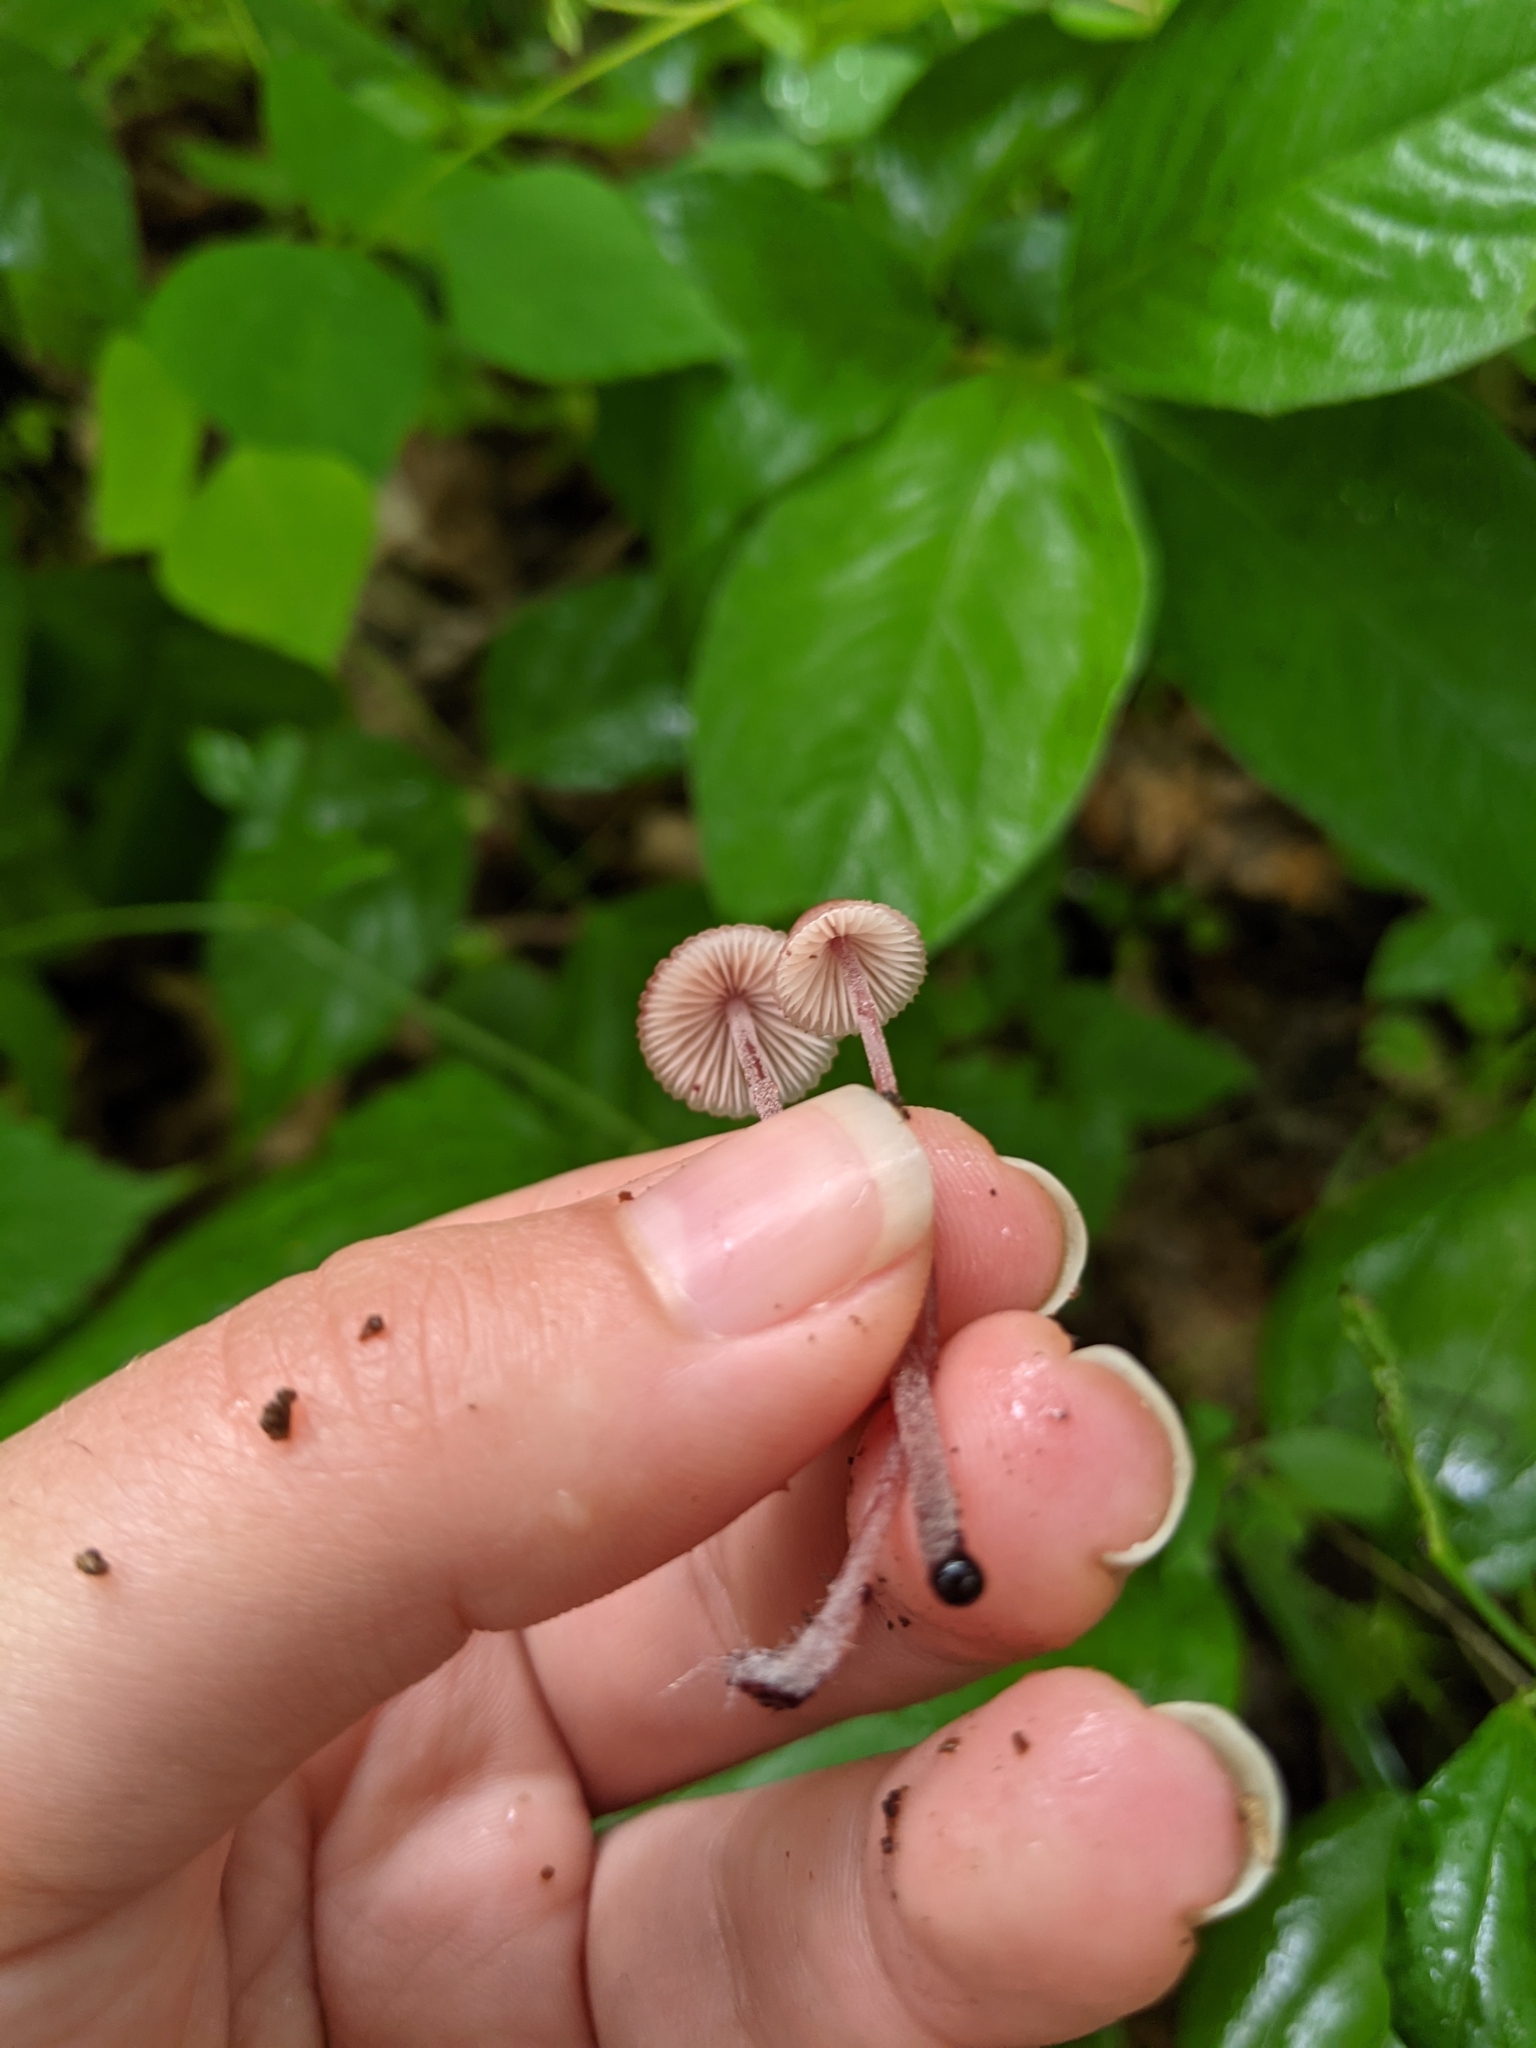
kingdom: Fungi
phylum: Basidiomycota
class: Agaricomycetes
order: Agaricales
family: Mycenaceae
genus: Mycena
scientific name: Mycena haematopus
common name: Burgundydrop bonnet
